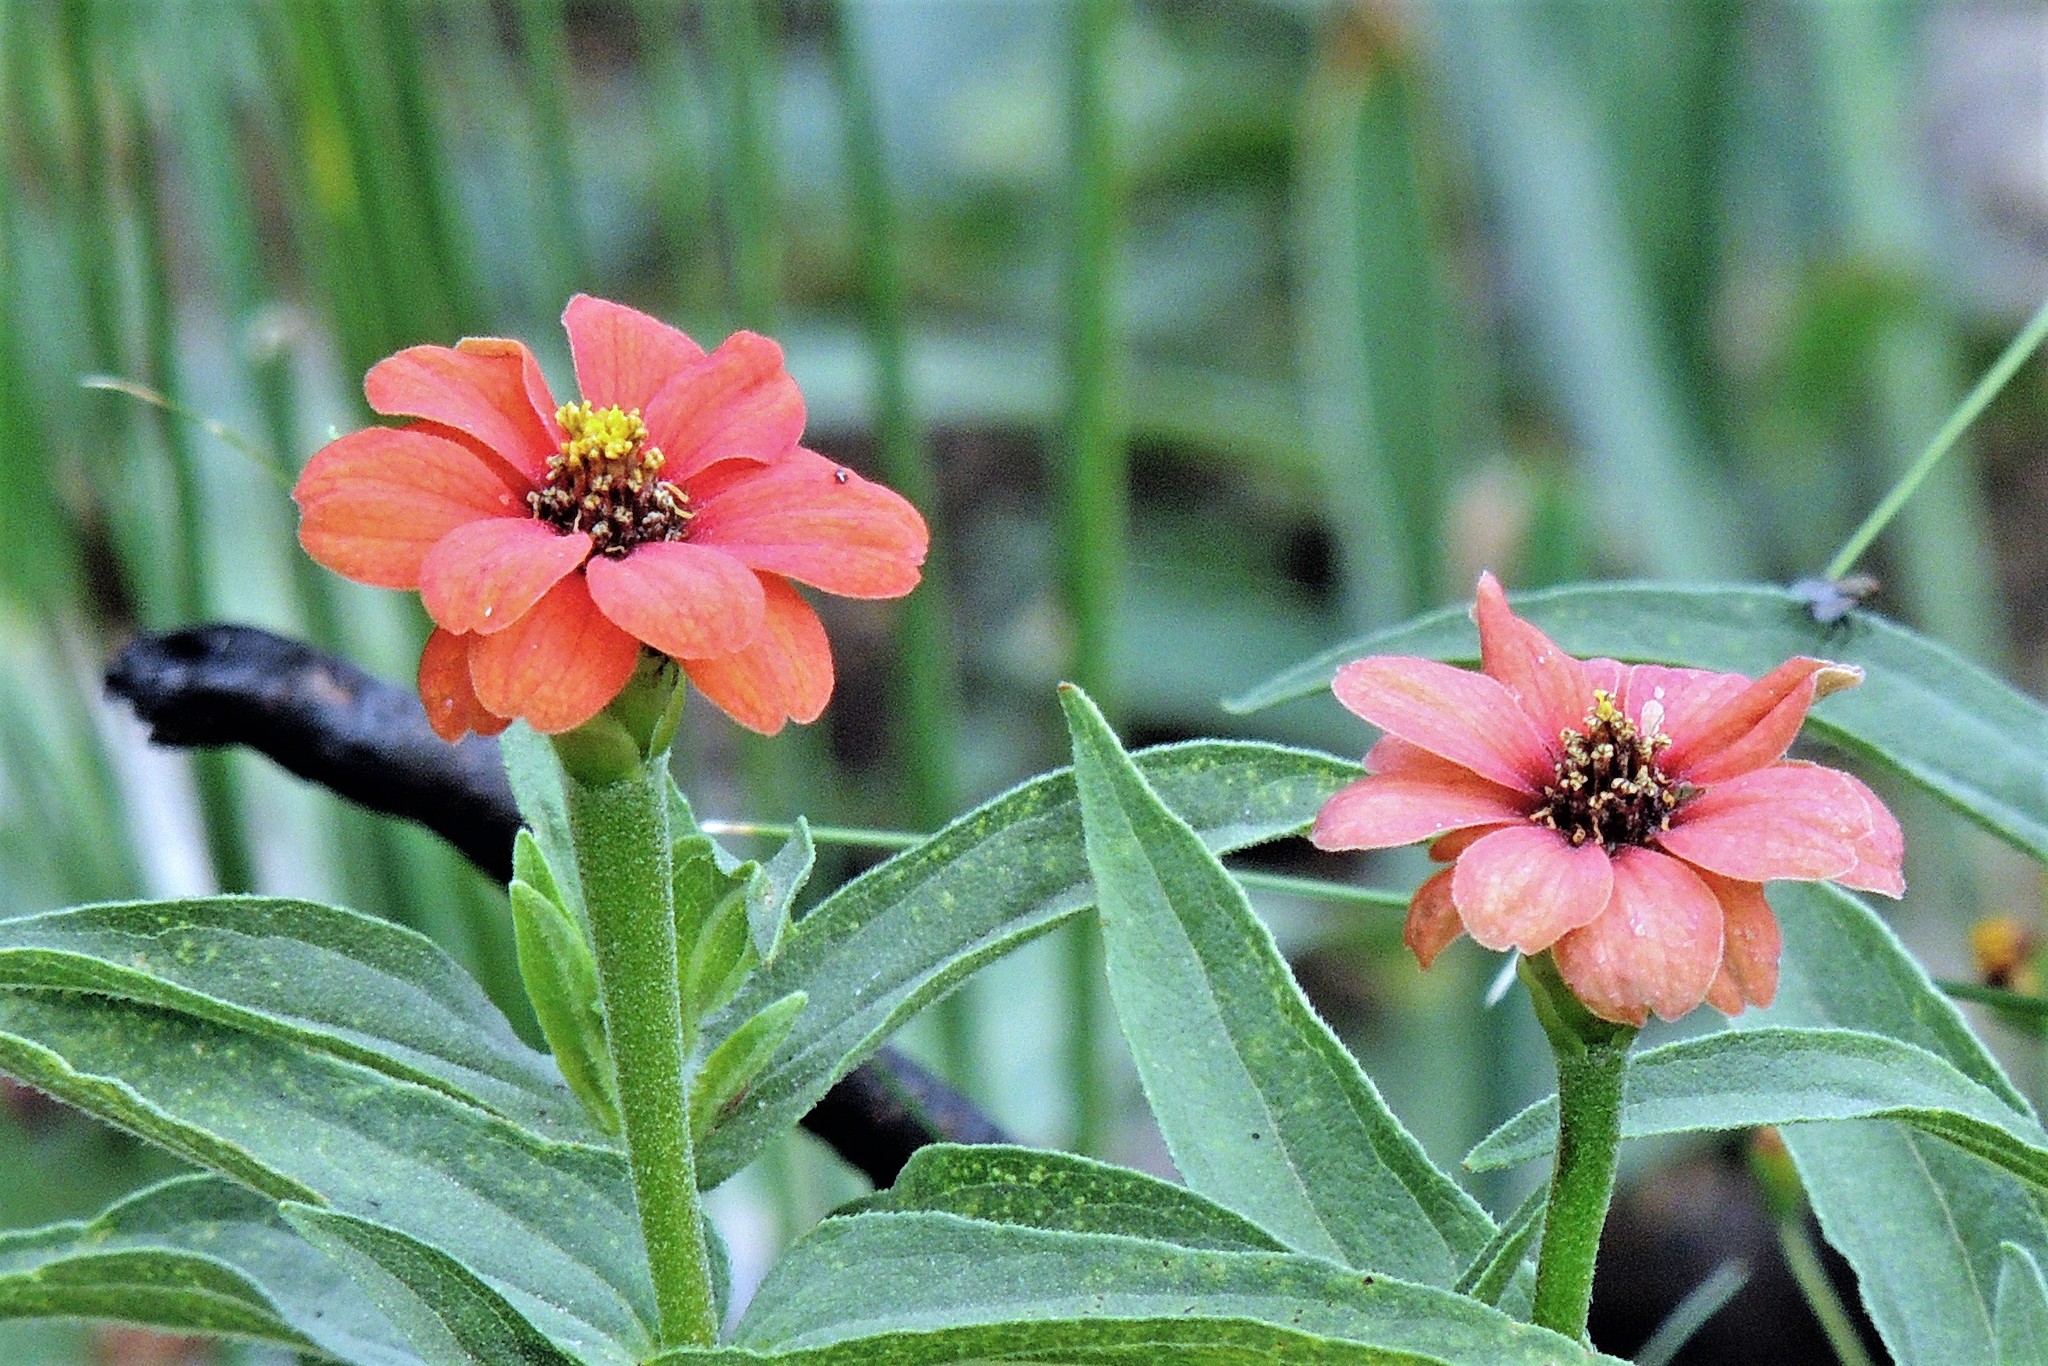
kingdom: Plantae
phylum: Tracheophyta
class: Magnoliopsida
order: Asterales
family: Asteraceae
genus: Zinnia
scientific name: Zinnia peruviana
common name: Peruvian zinnia
